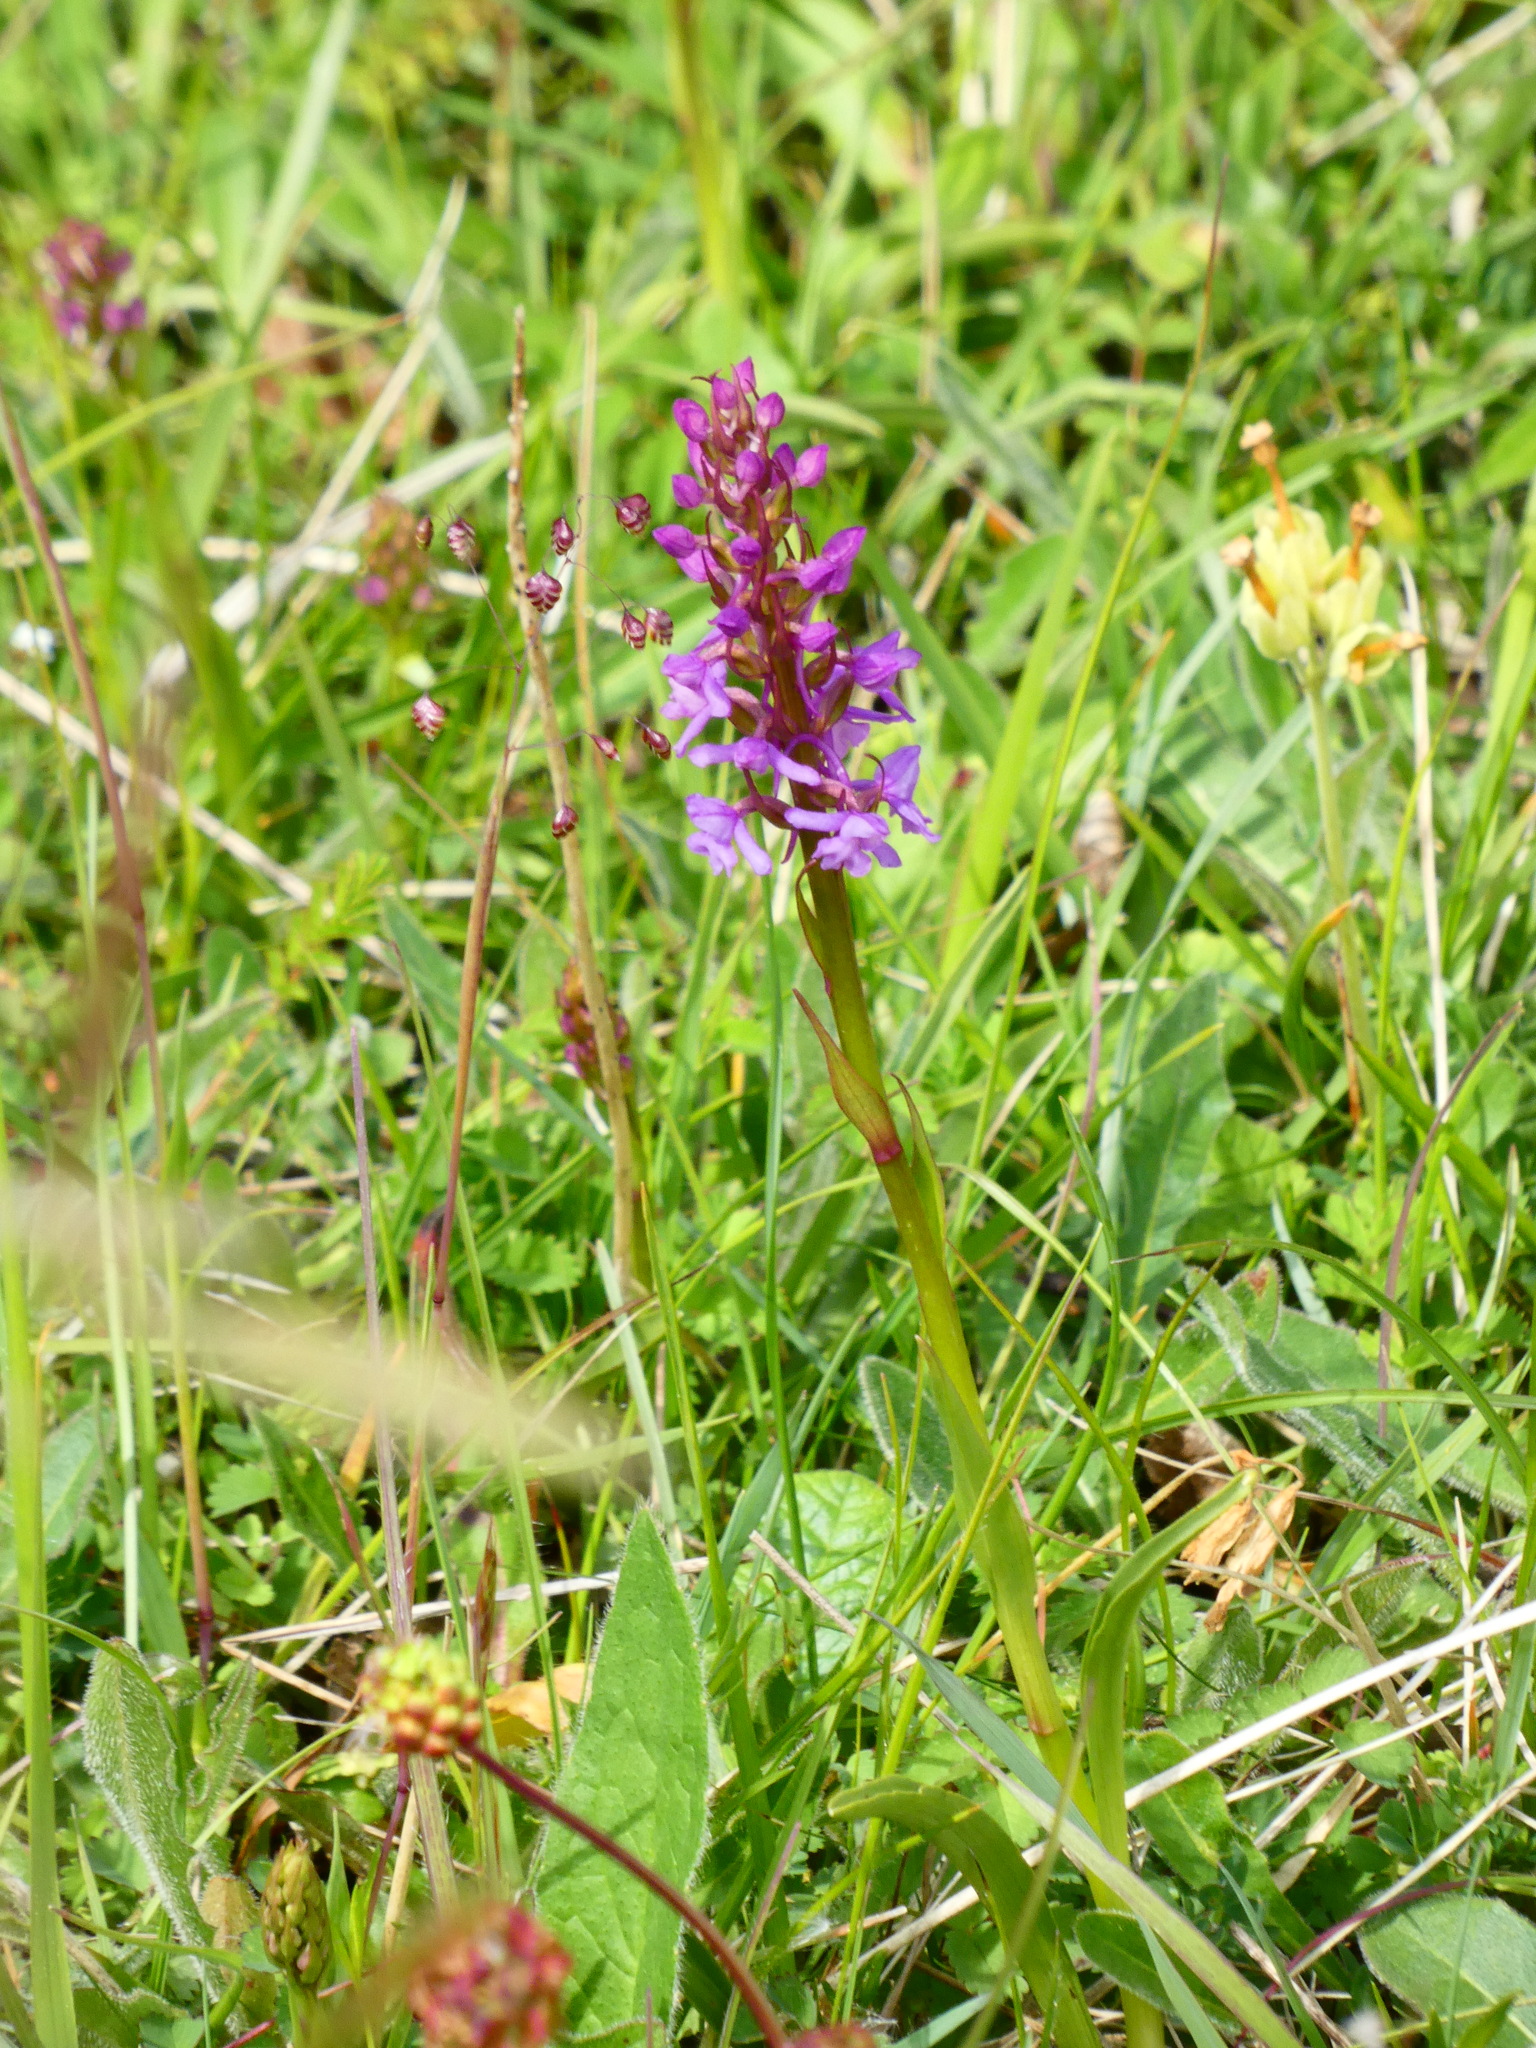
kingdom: Plantae
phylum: Tracheophyta
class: Liliopsida
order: Asparagales
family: Orchidaceae
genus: Gymnadenia
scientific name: Gymnadenia conopsea
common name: Fragrant orchid
